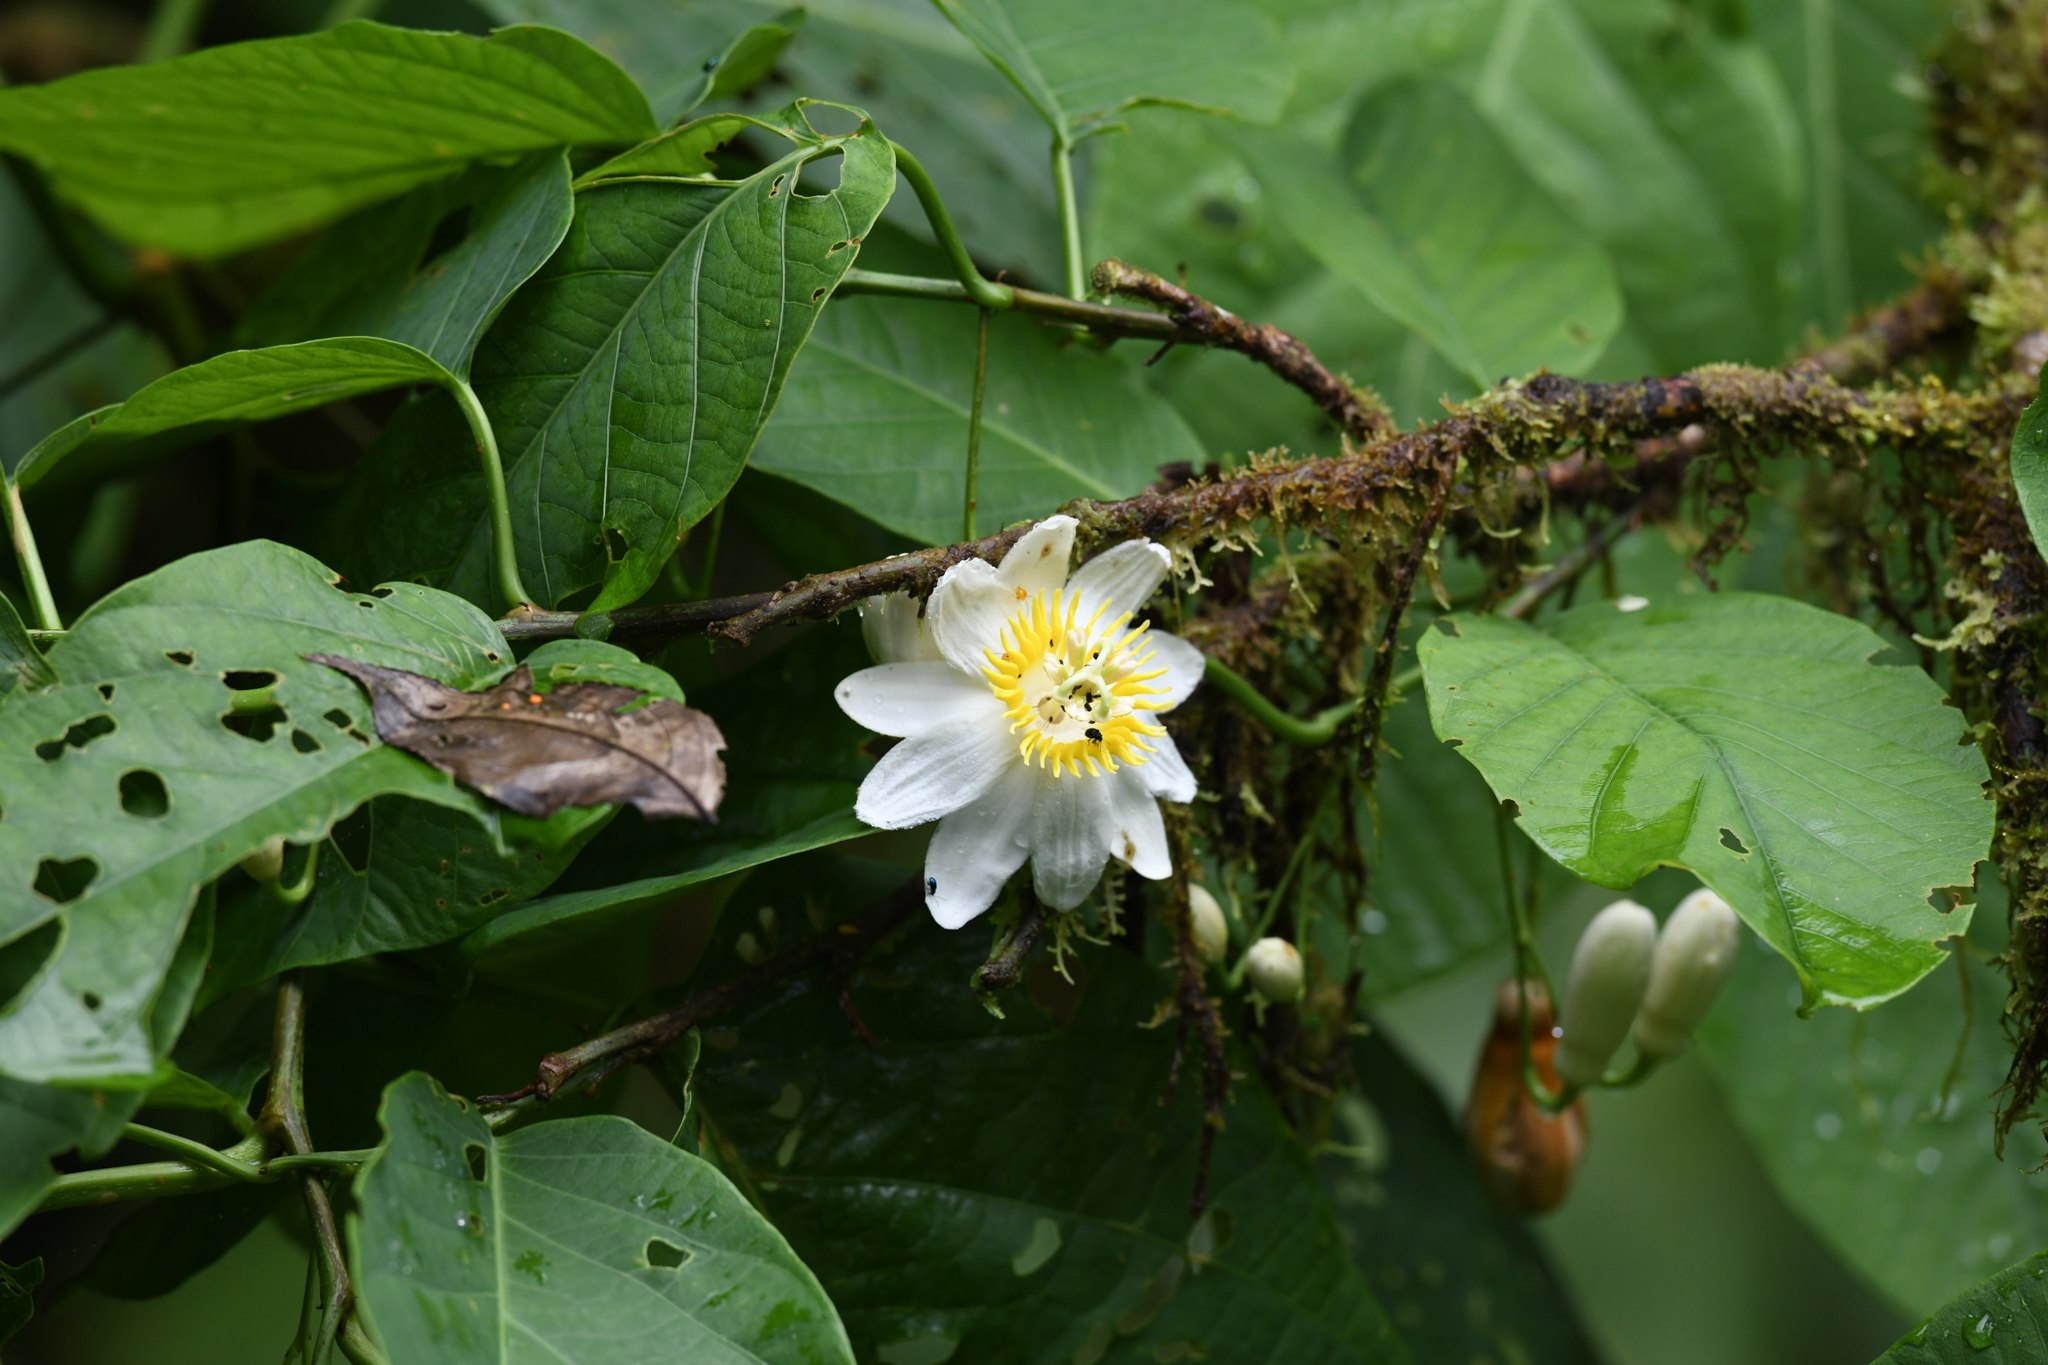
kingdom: Plantae
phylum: Tracheophyta
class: Magnoliopsida
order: Malpighiales
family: Passifloraceae
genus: Passiflora
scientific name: Passiflora tica
